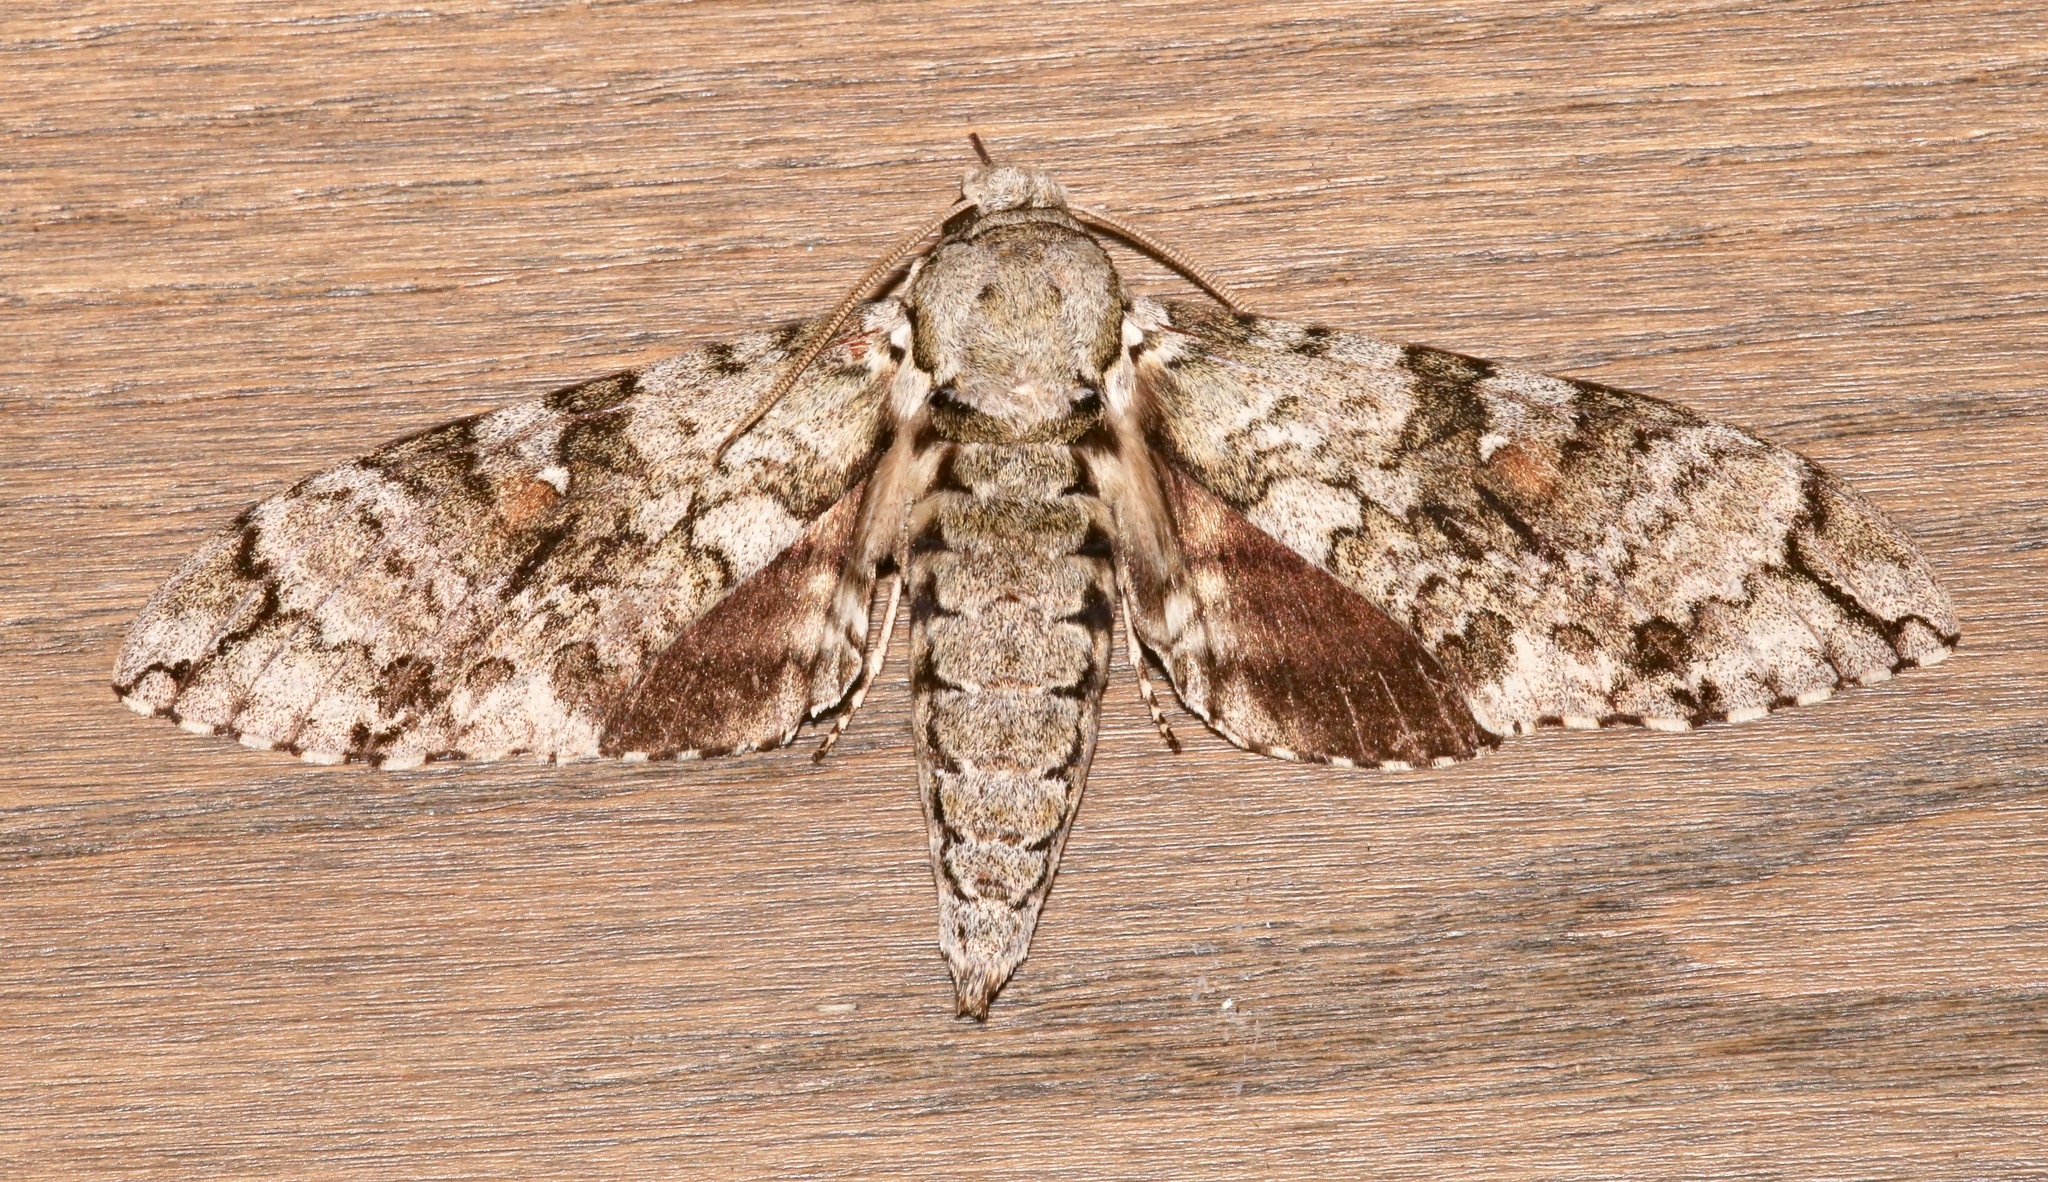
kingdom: Animalia
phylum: Arthropoda
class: Insecta
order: Lepidoptera
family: Sphingidae
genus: Manduca
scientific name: Manduca florestan
